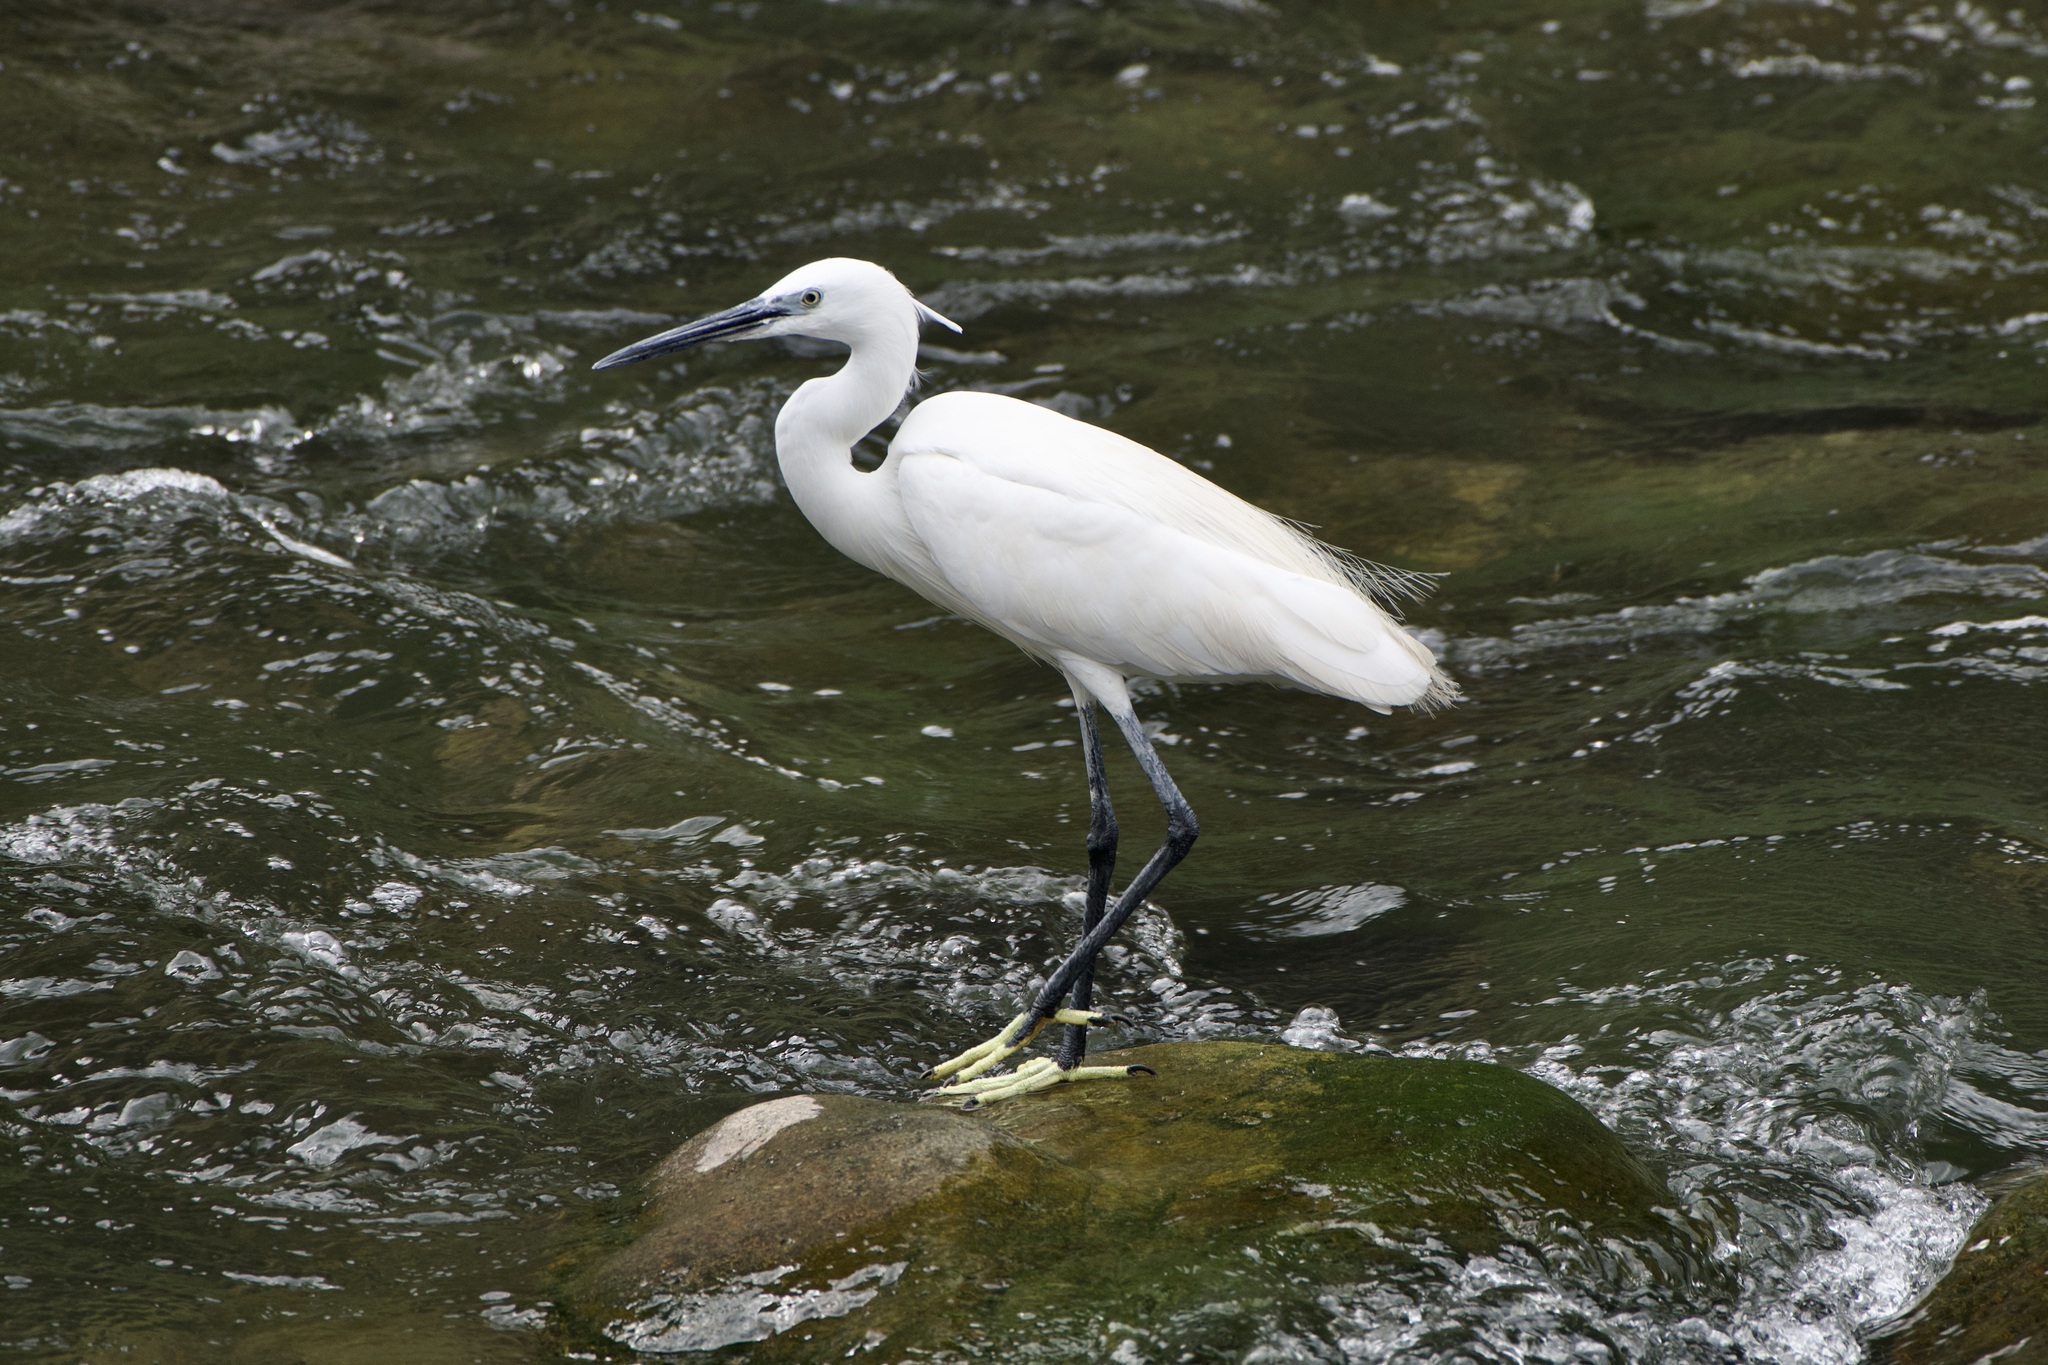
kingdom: Animalia
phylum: Chordata
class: Aves
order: Pelecaniformes
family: Ardeidae
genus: Egretta
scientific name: Egretta garzetta
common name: Little egret
